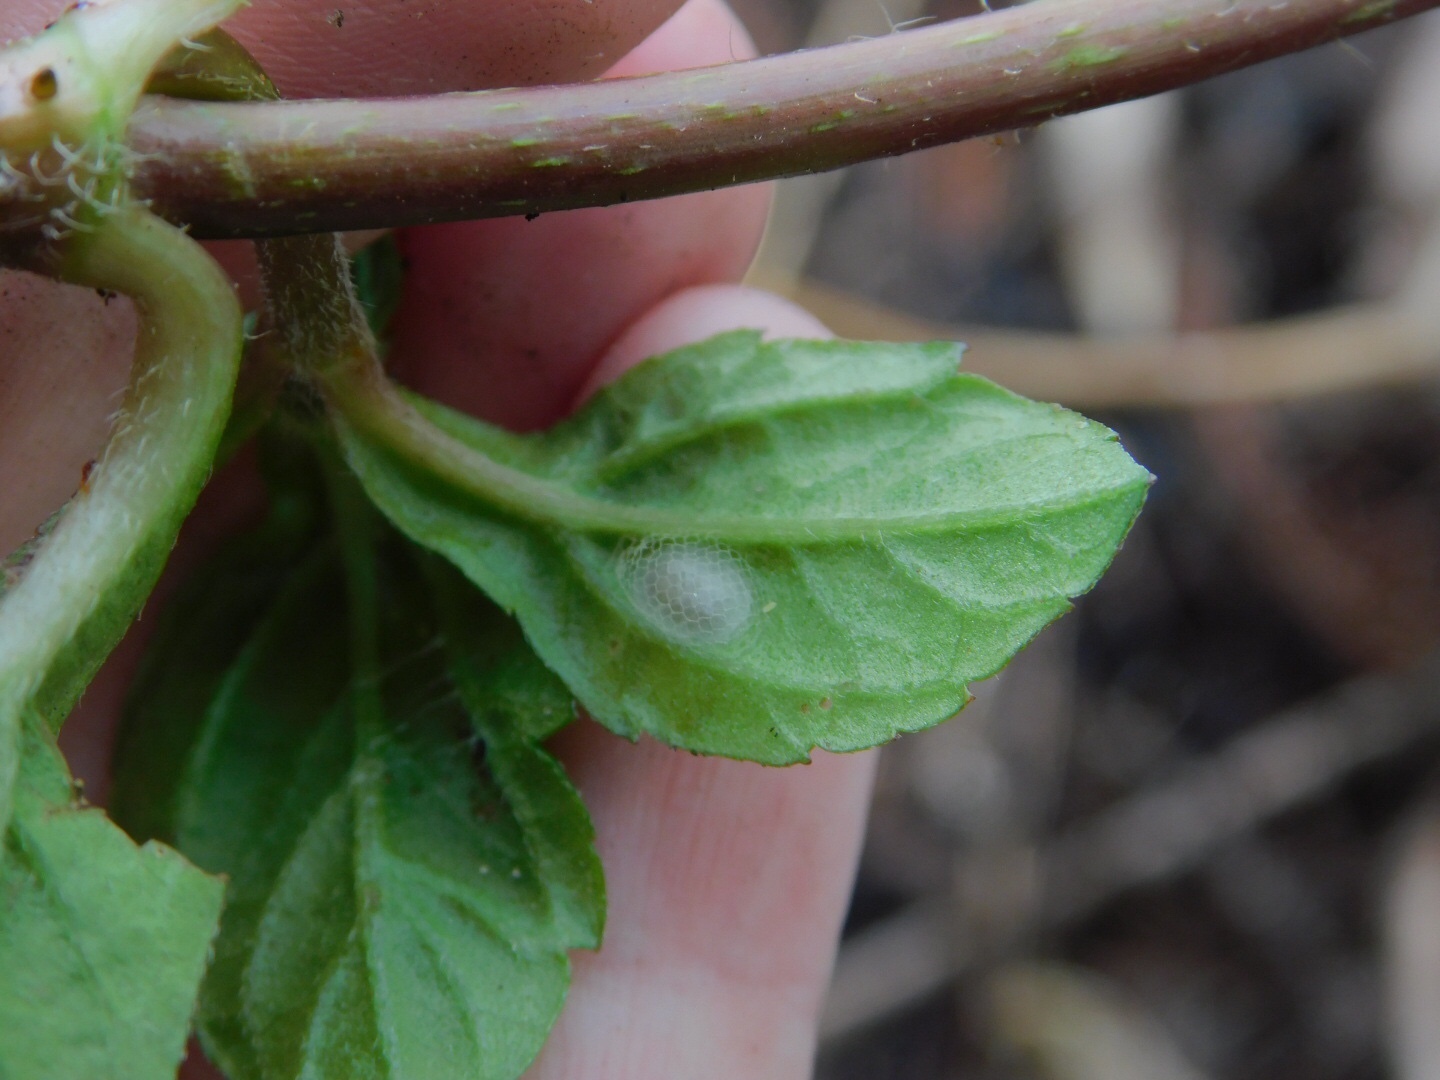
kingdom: Animalia
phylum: Arthropoda
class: Insecta
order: Neuroptera
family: Sisyridae
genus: Climacia
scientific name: Climacia areolaris
